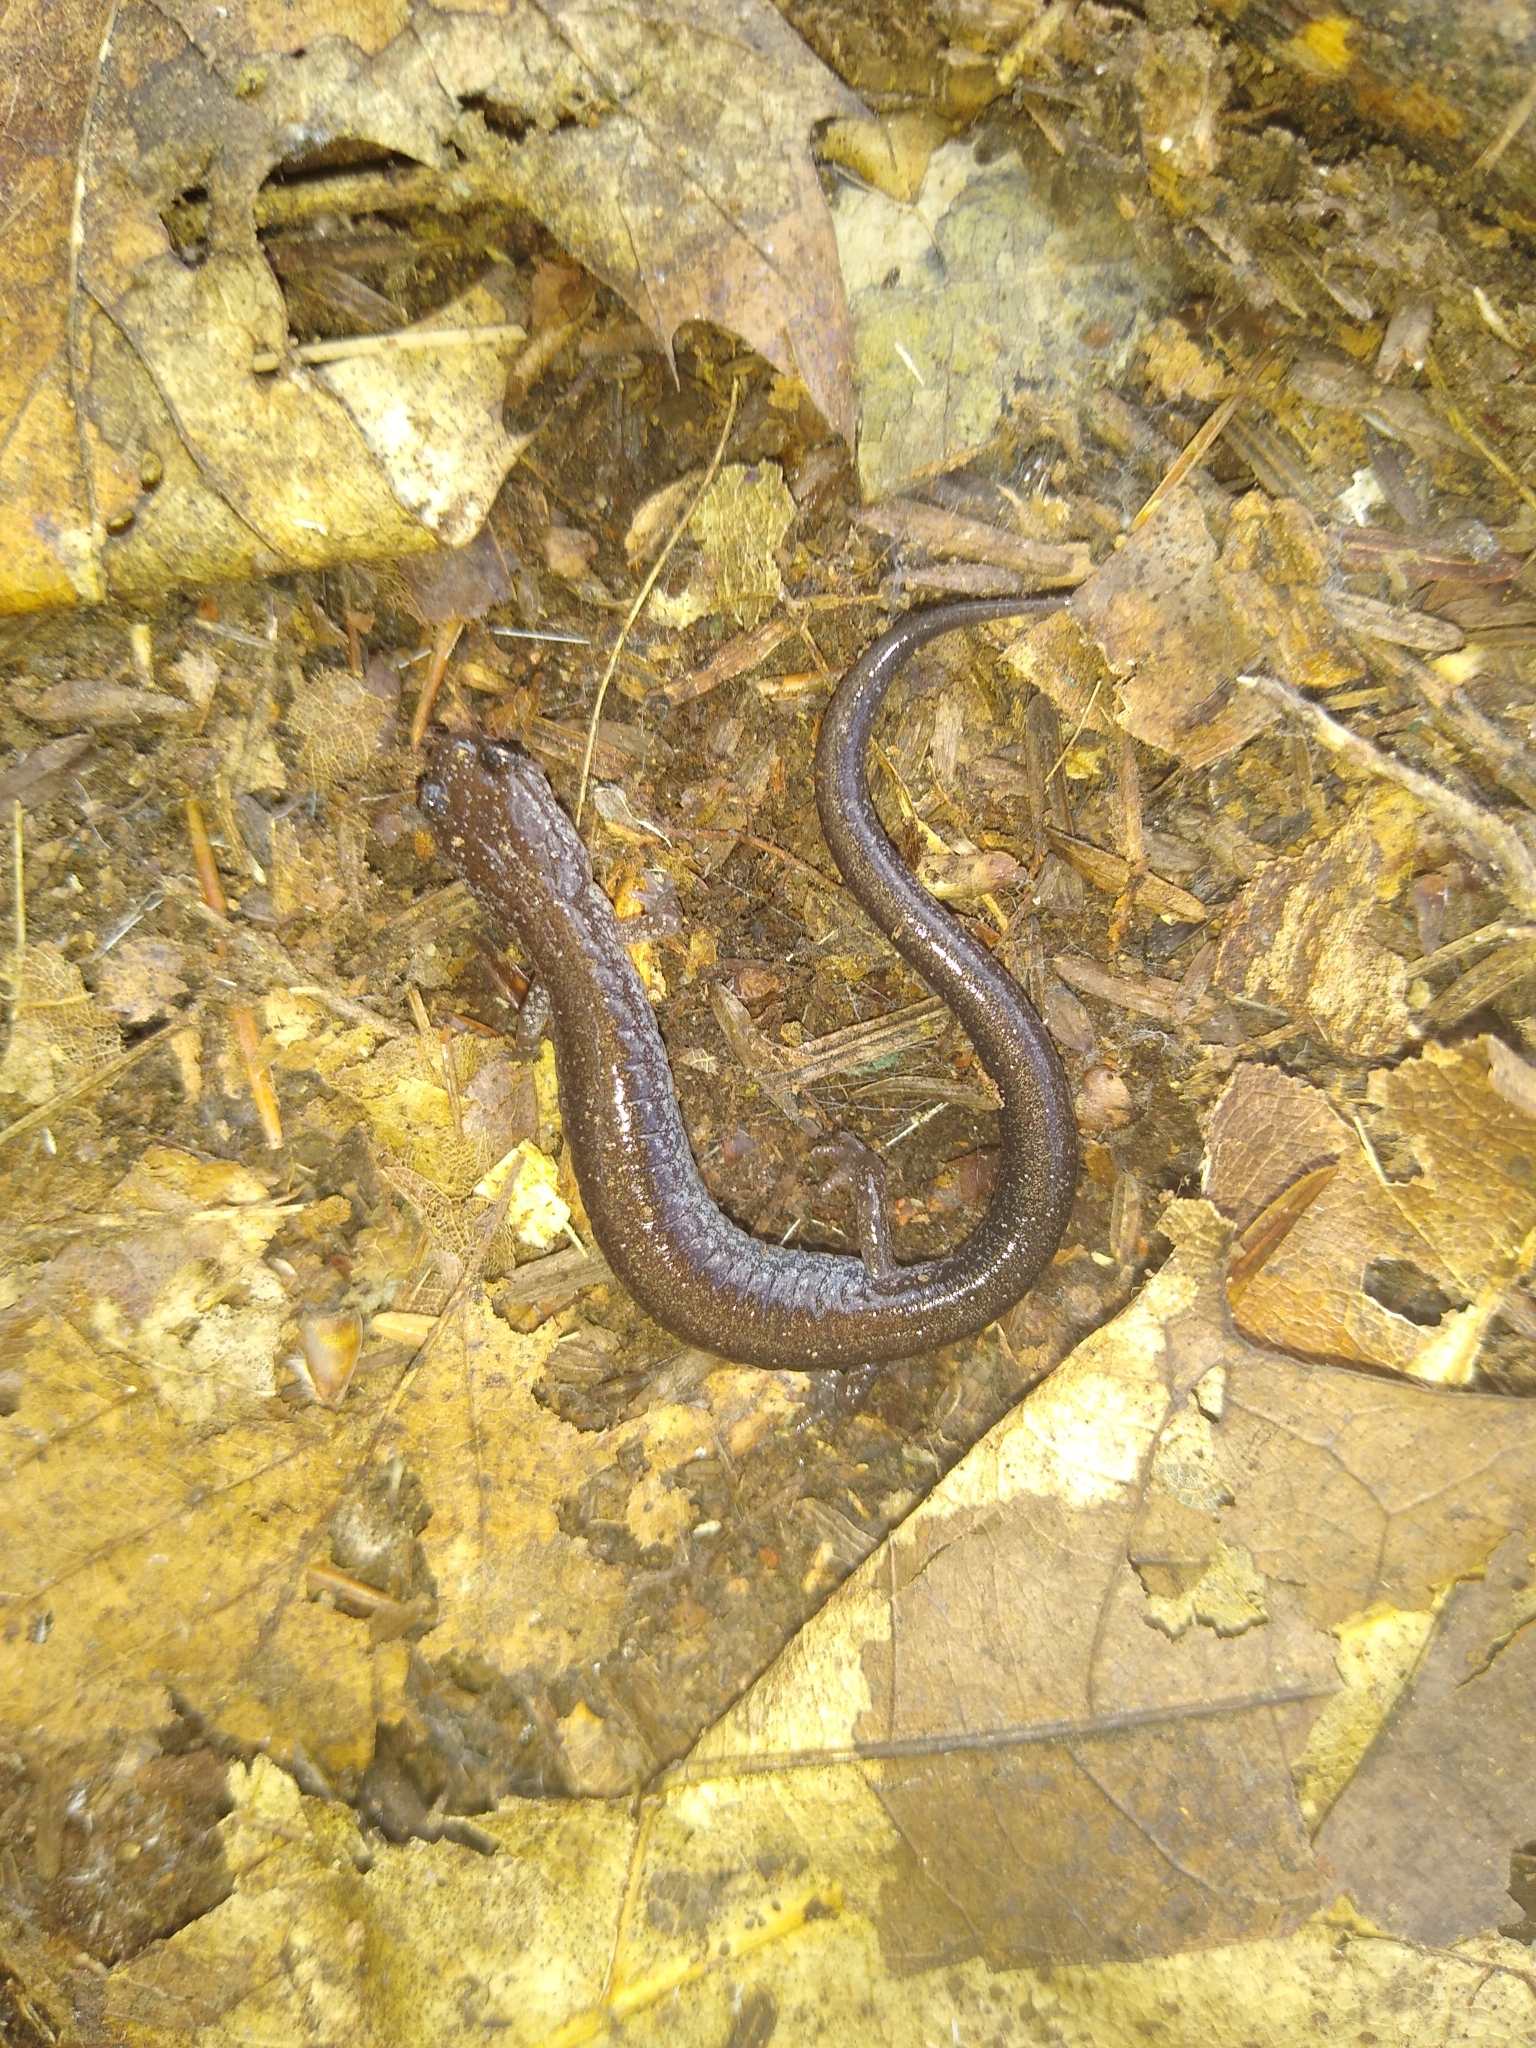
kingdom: Animalia
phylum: Chordata
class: Amphibia
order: Caudata
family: Plethodontidae
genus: Plethodon
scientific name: Plethodon cinereus
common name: Redback salamander
